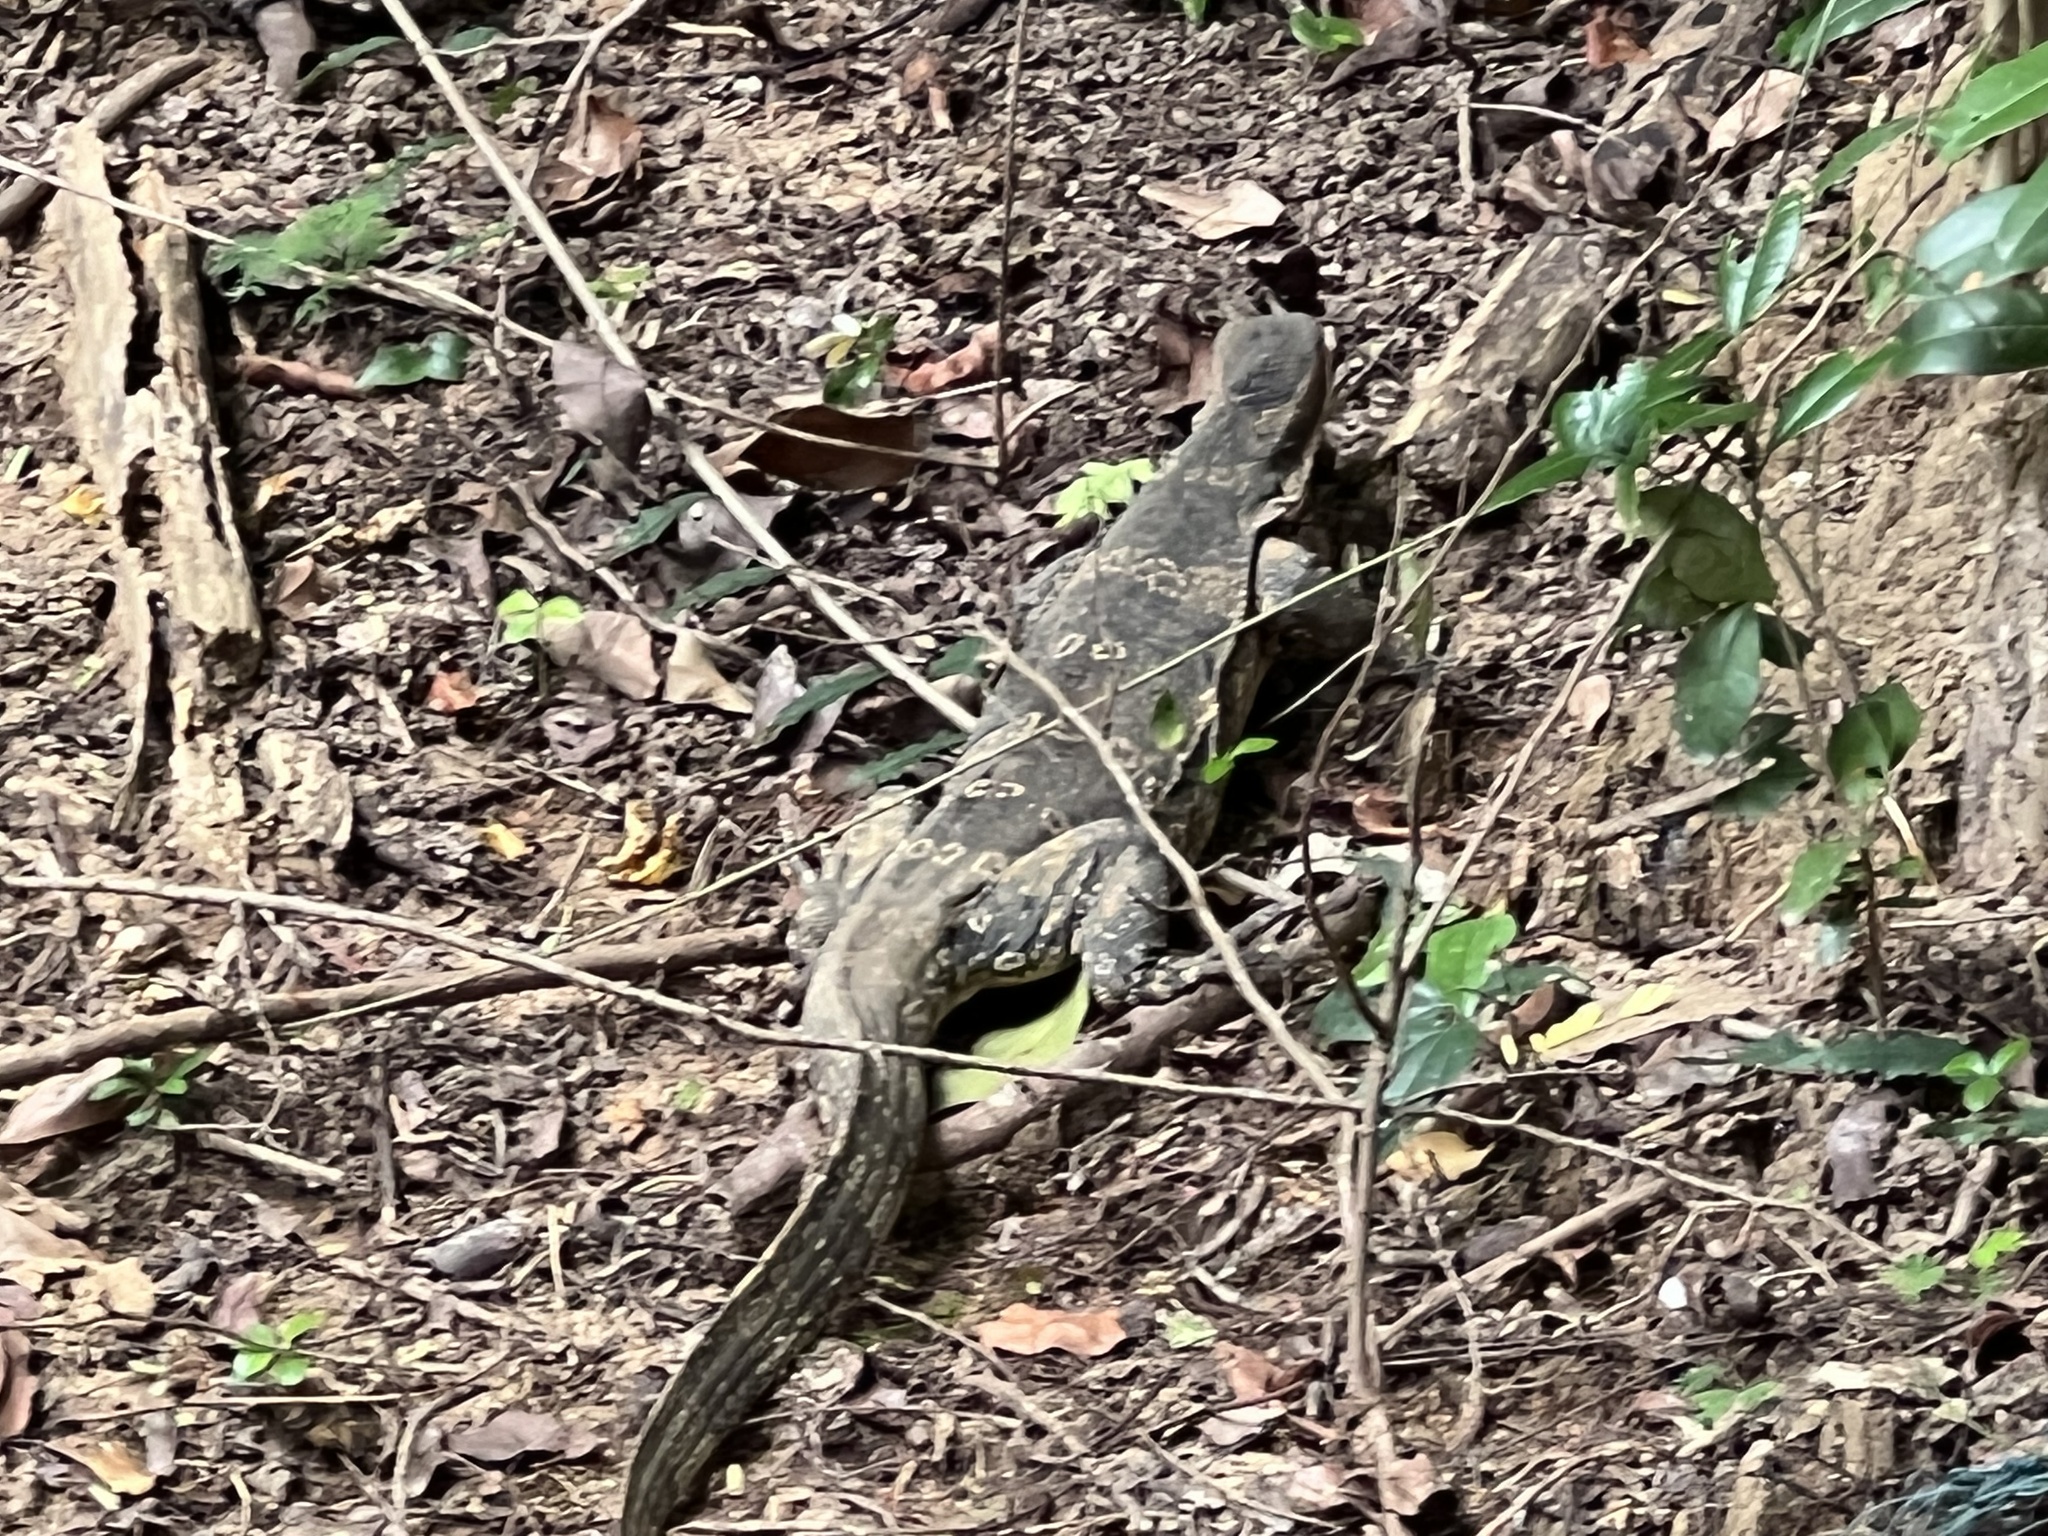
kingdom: Animalia
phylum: Chordata
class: Squamata
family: Varanidae
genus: Varanus
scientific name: Varanus salvator
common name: Common water monitor
